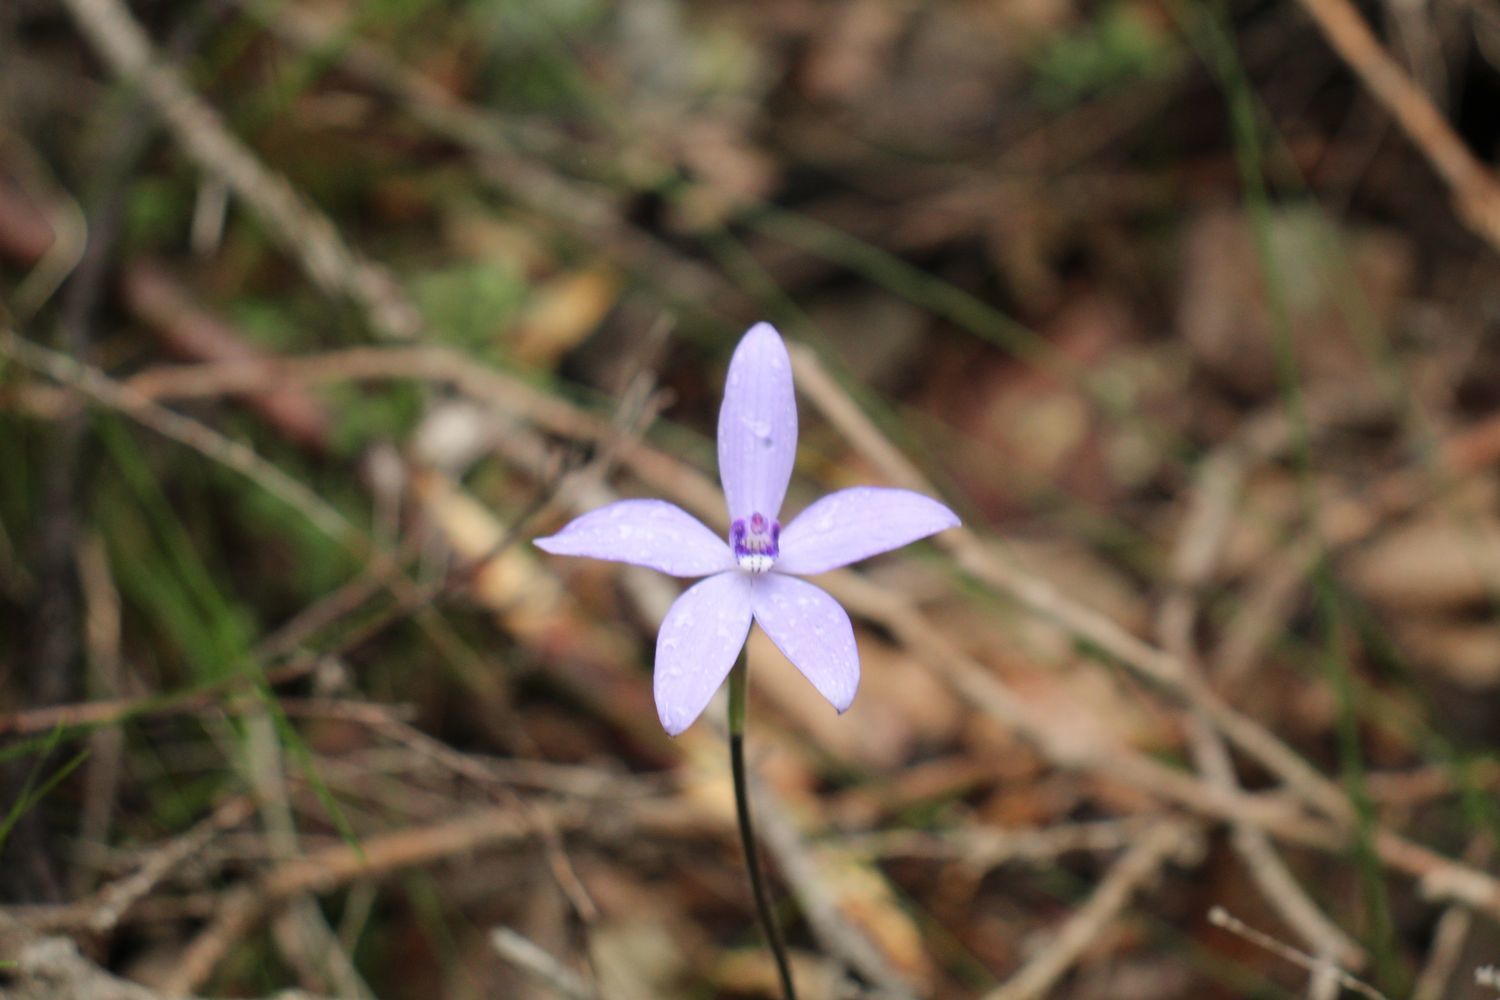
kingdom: Plantae
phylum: Tracheophyta
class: Liliopsida
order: Asparagales
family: Orchidaceae
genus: Caladenia
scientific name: Caladenia sericea
